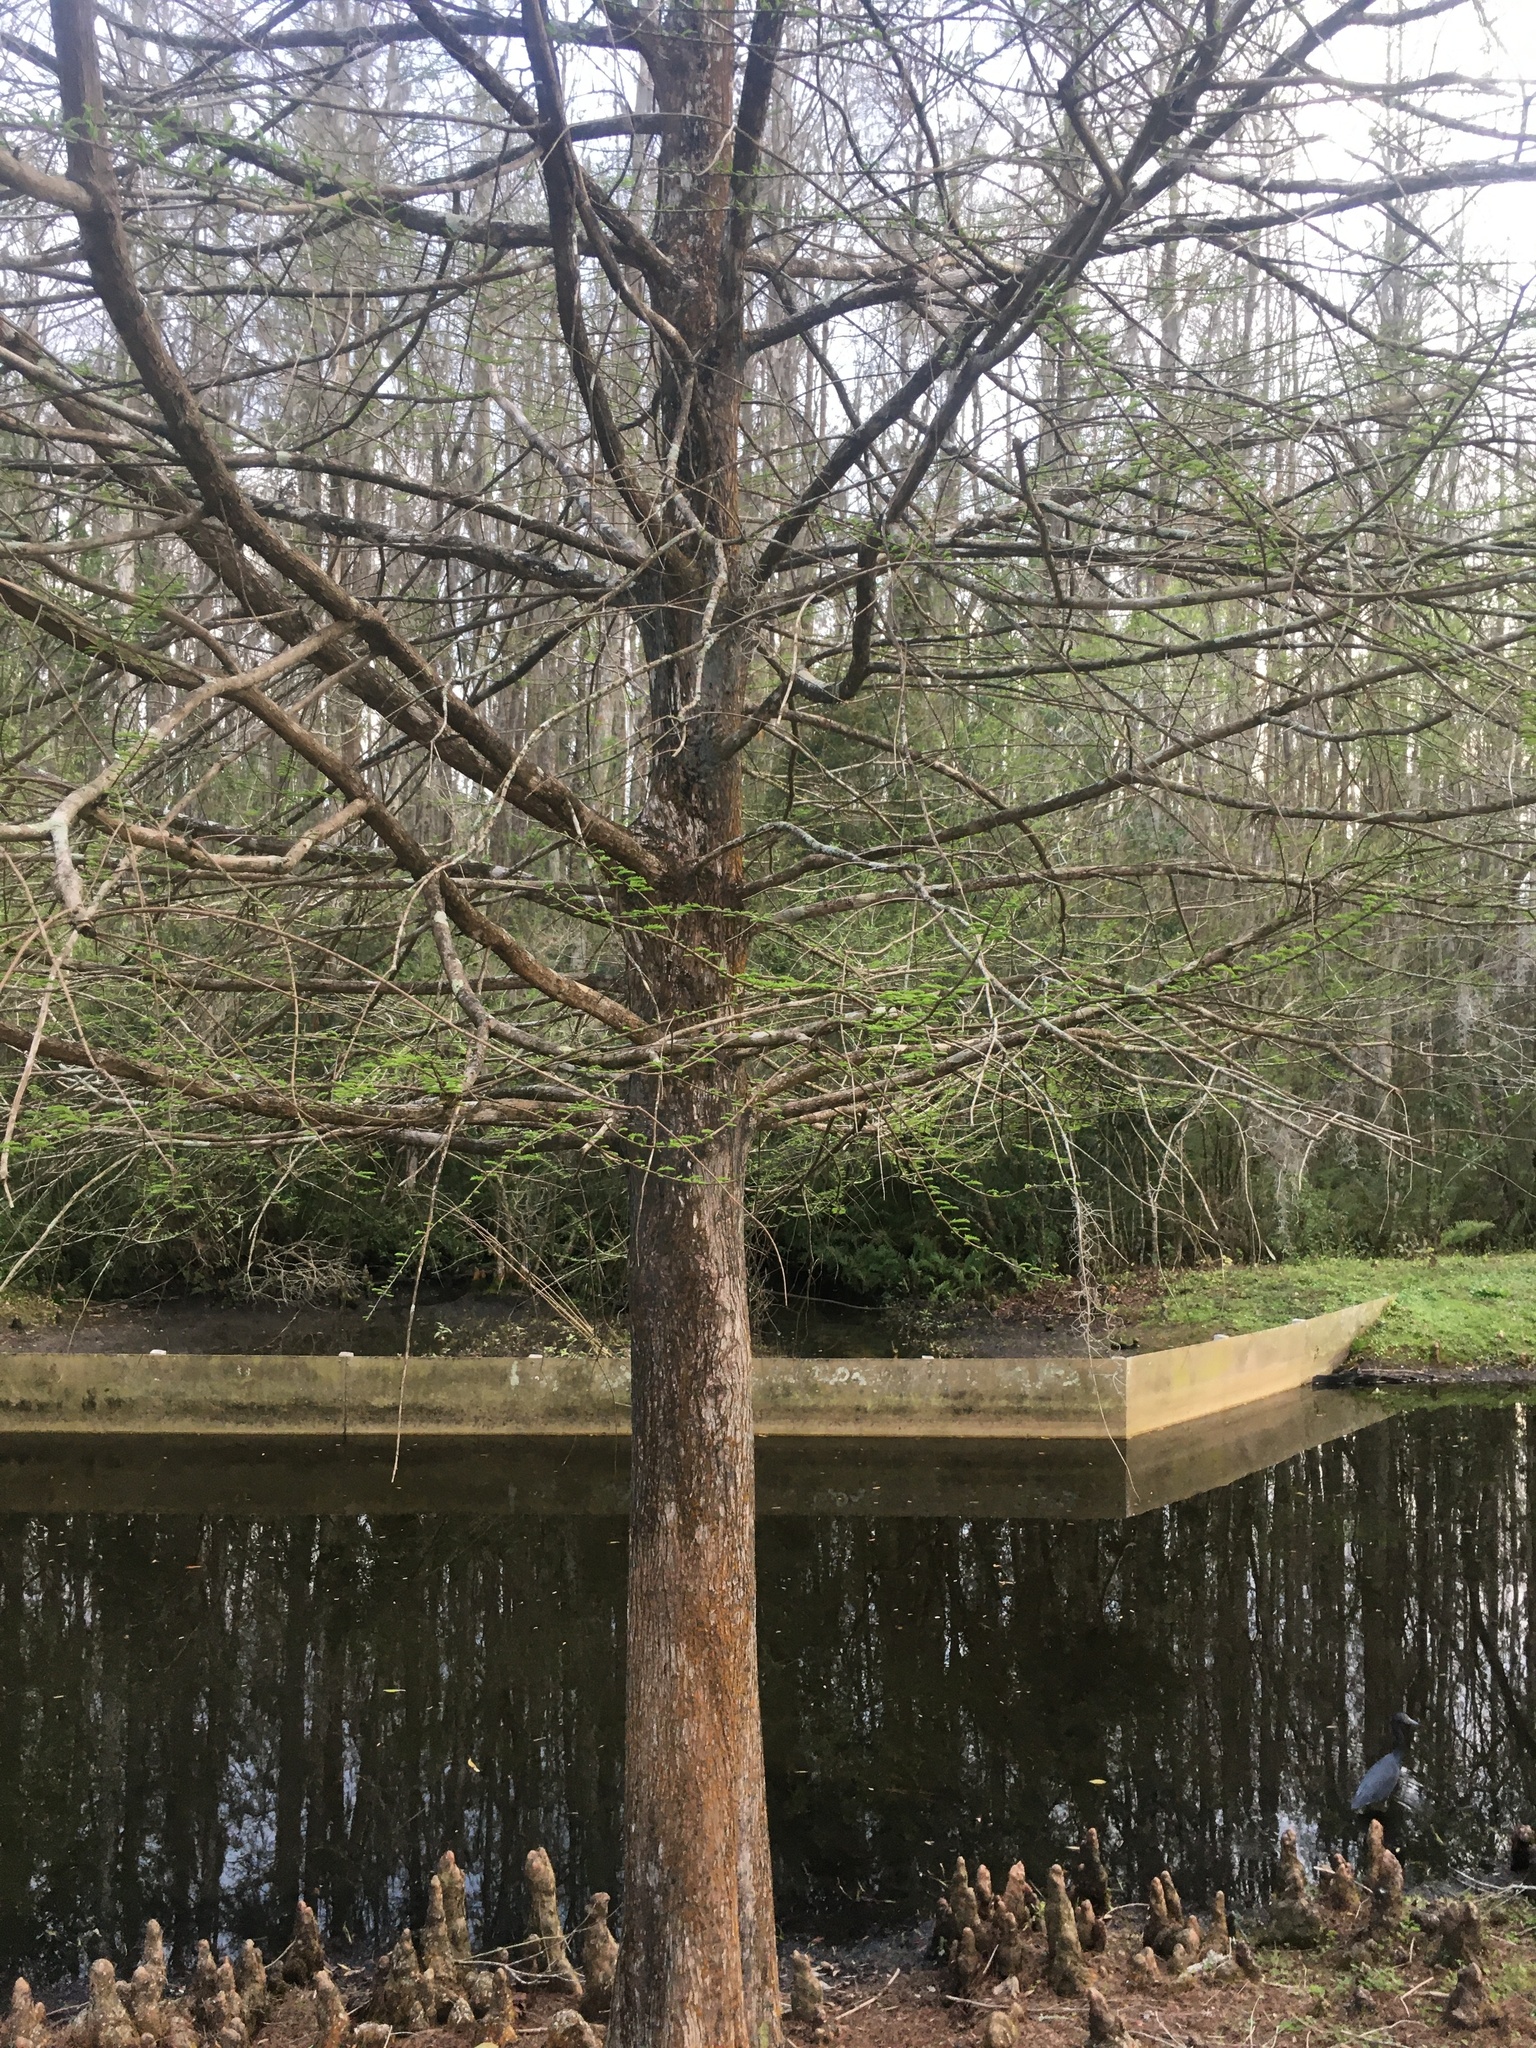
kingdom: Plantae
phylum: Tracheophyta
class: Pinopsida
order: Pinales
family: Cupressaceae
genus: Taxodium
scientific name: Taxodium distichum
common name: Bald cypress
